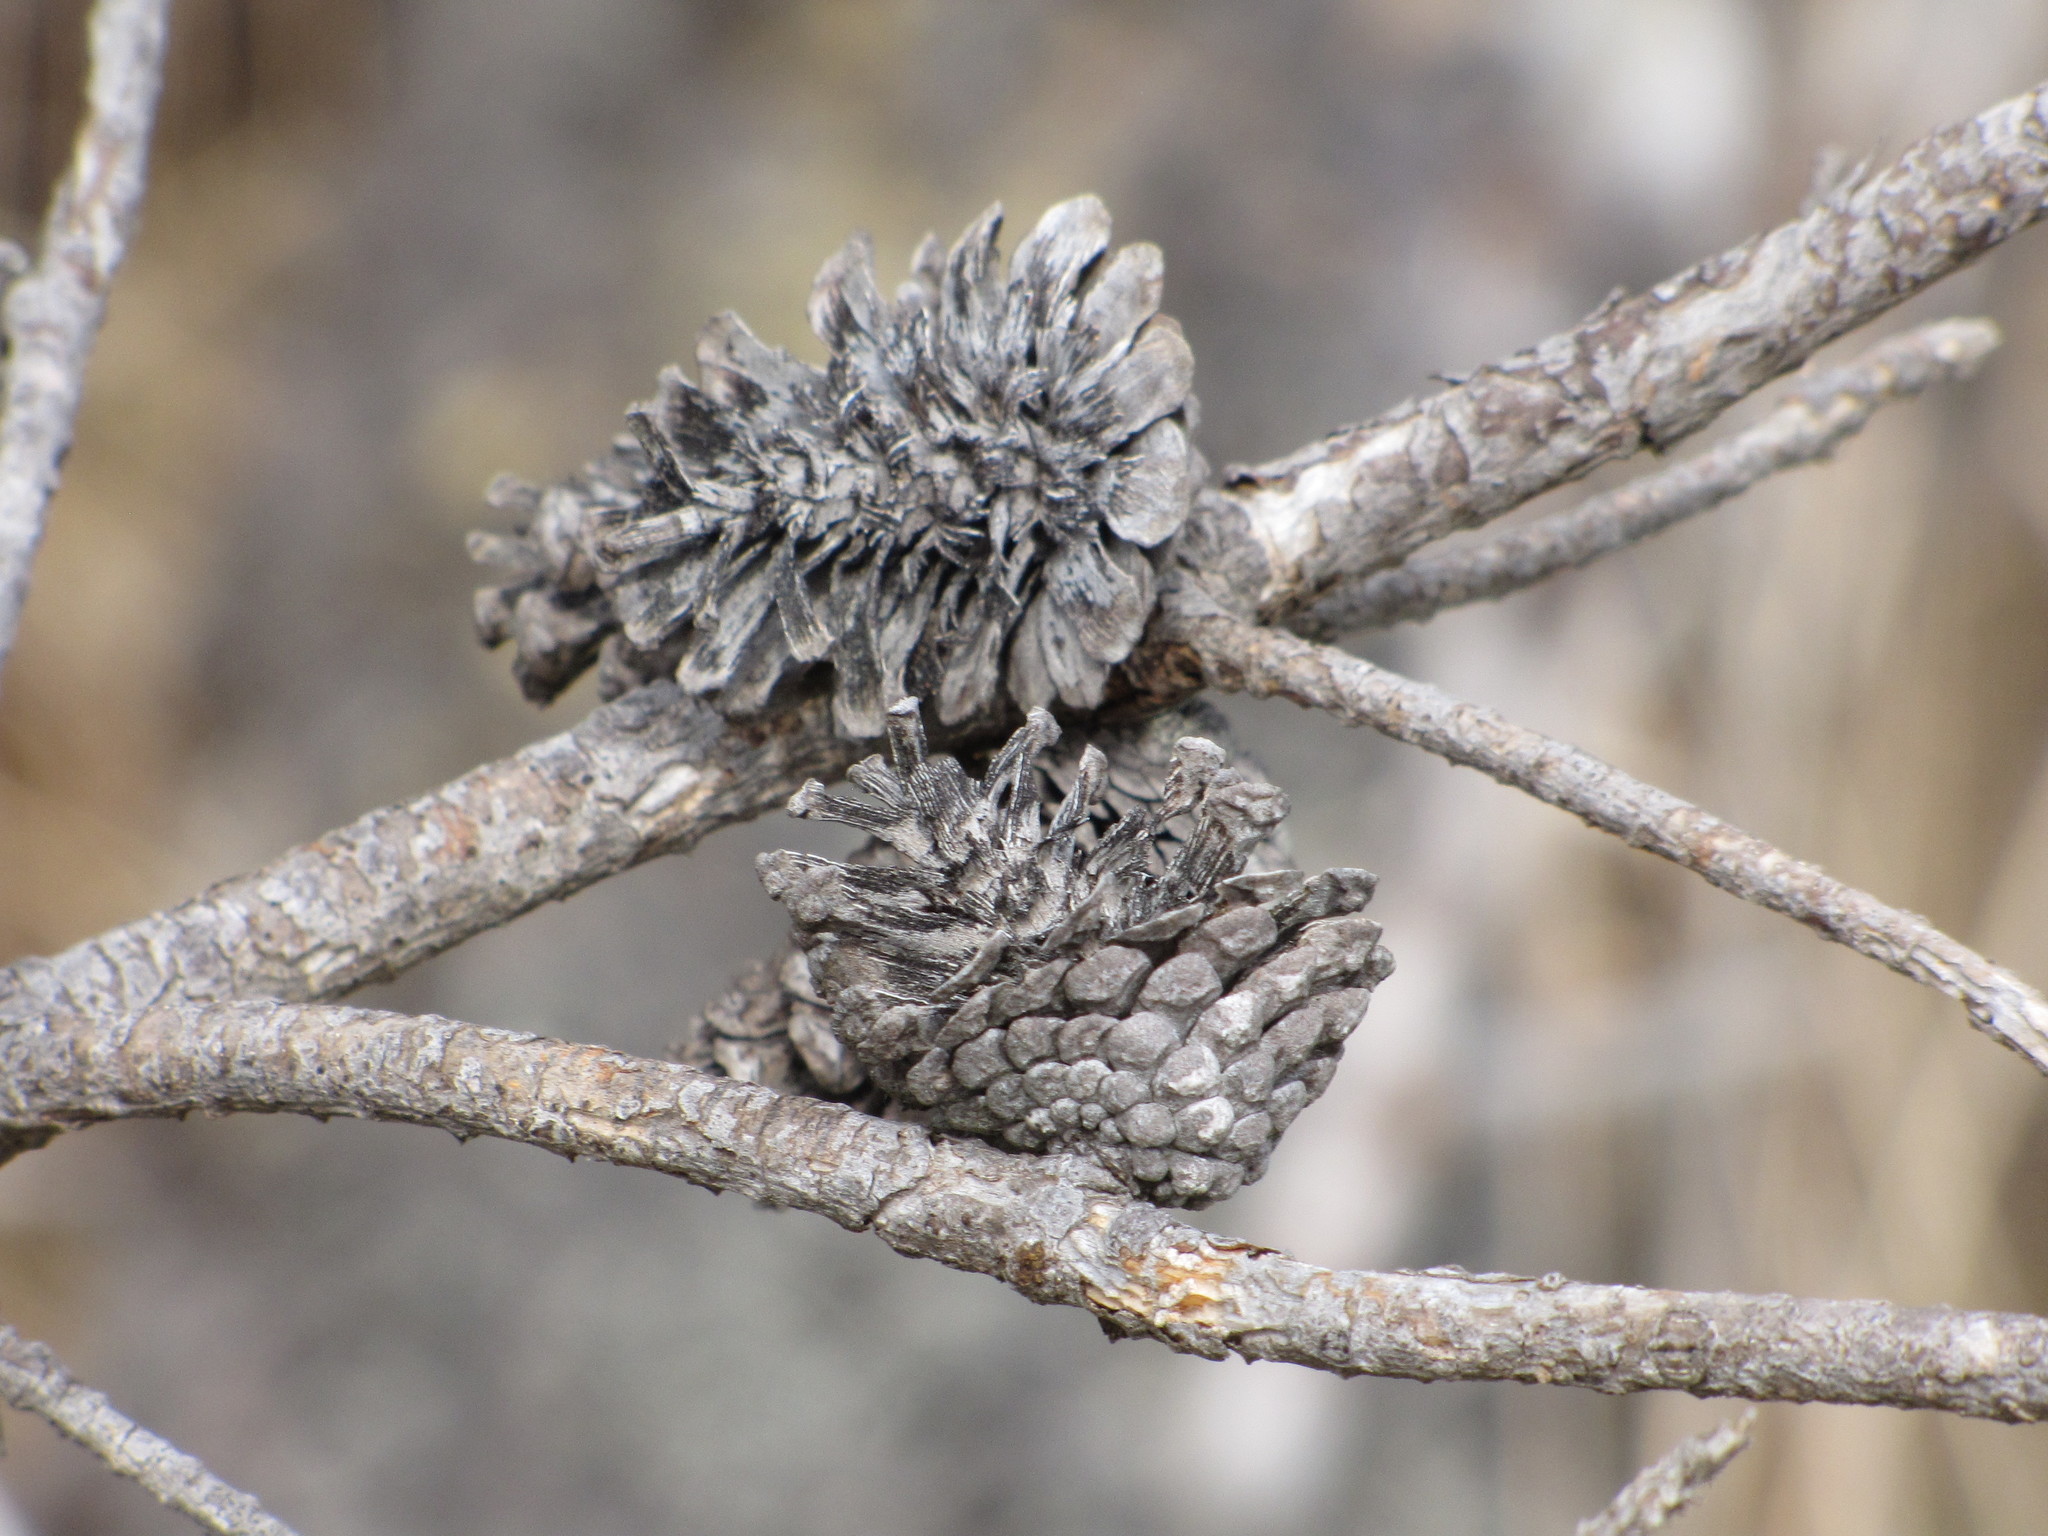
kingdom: Plantae
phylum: Tracheophyta
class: Pinopsida
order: Pinales
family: Pinaceae
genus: Pinus
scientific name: Pinus contorta
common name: Lodgepole pine
